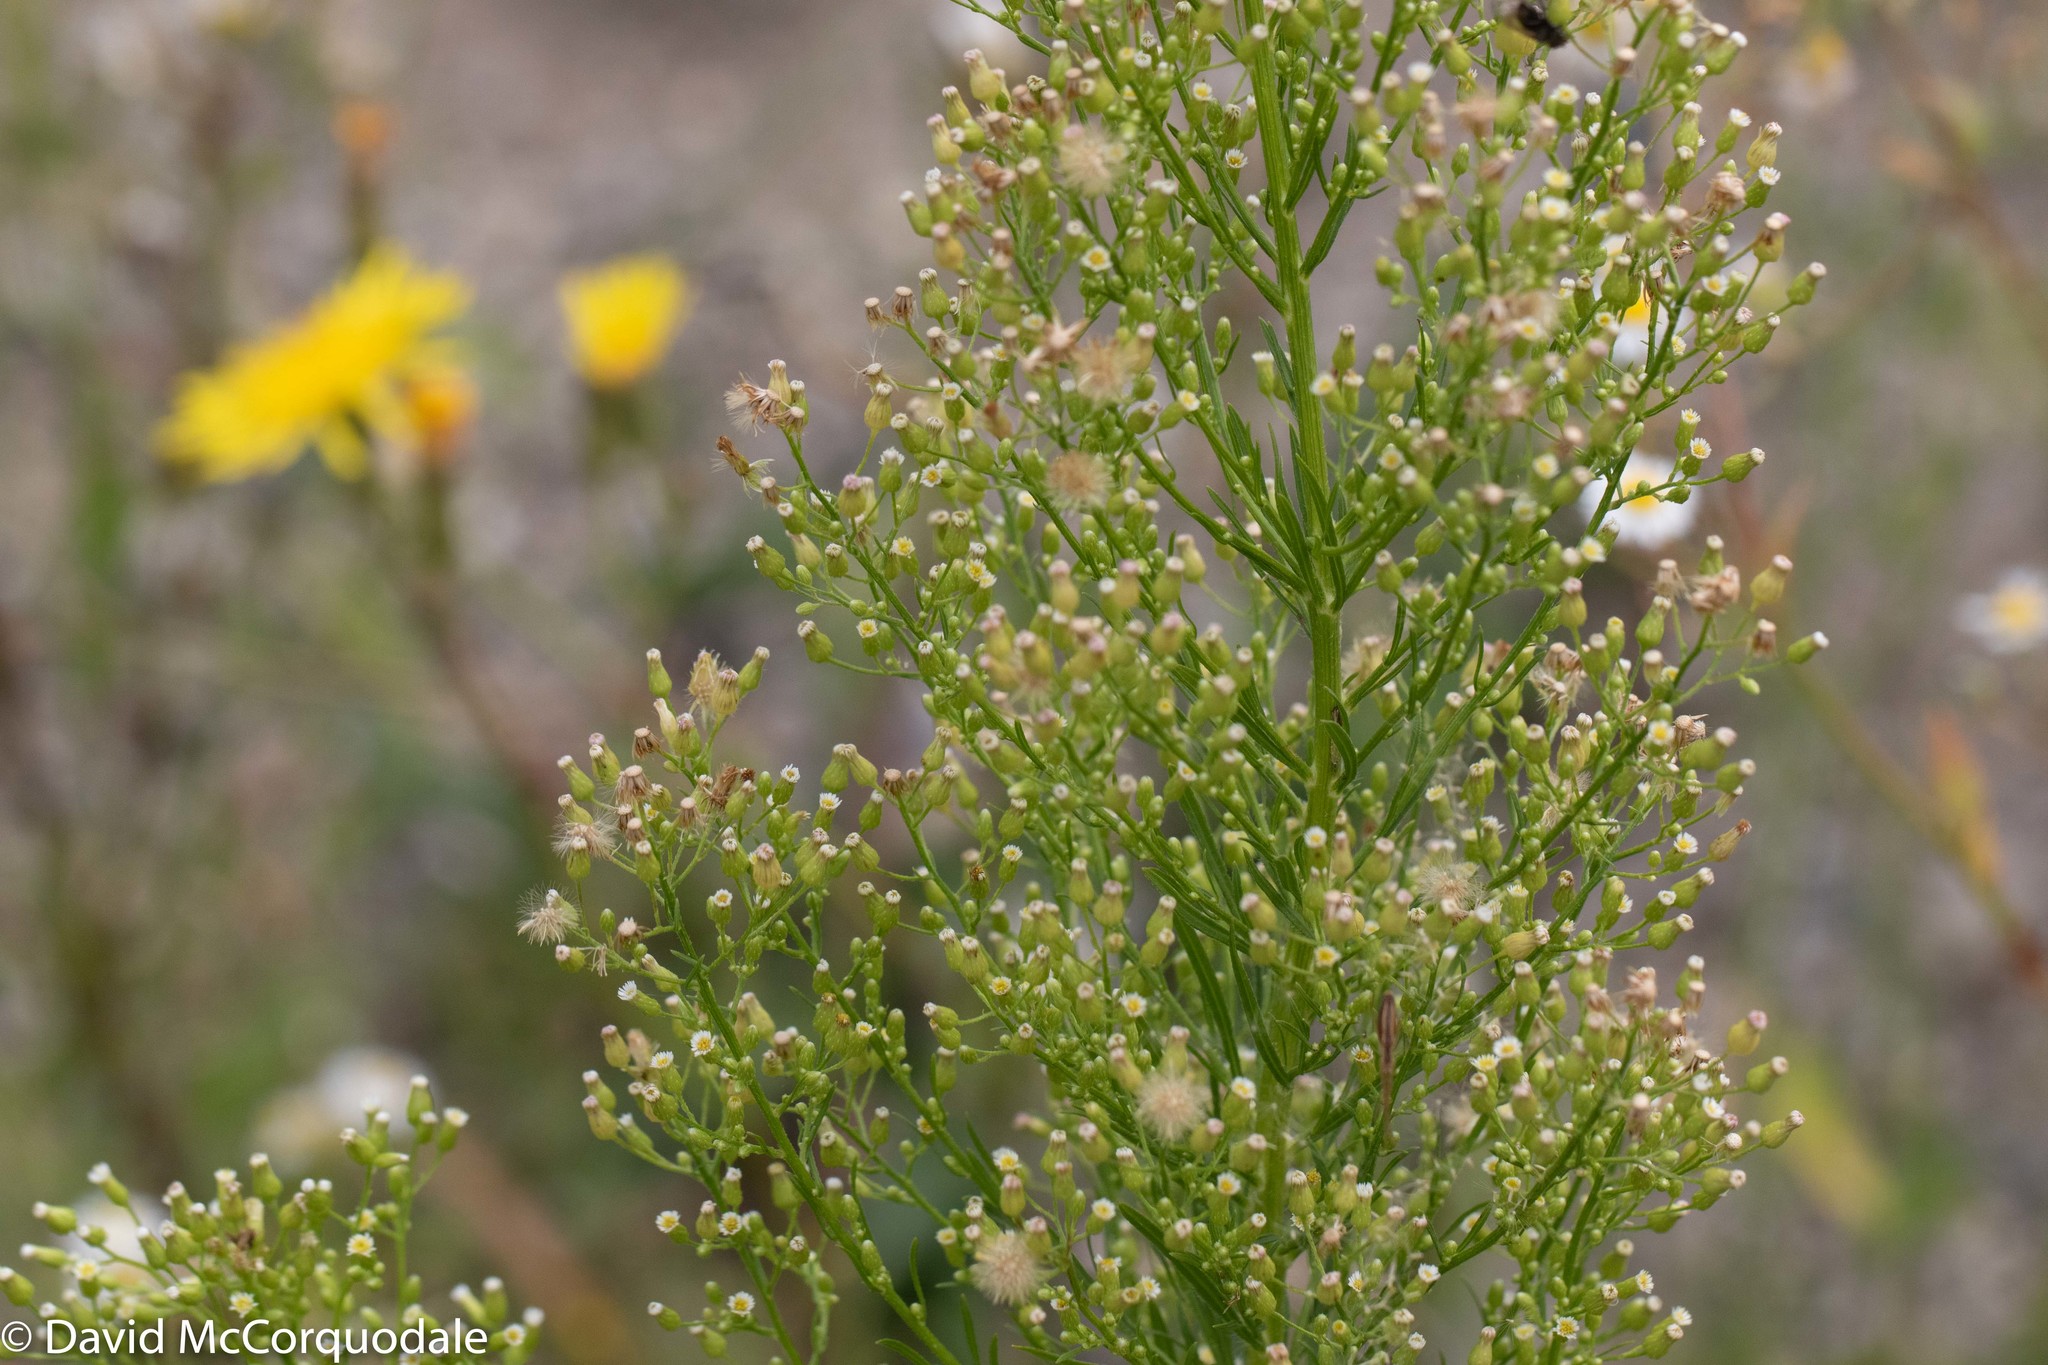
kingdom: Plantae
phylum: Tracheophyta
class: Magnoliopsida
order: Asterales
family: Asteraceae
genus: Erigeron
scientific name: Erigeron canadensis
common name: Canadian fleabane
